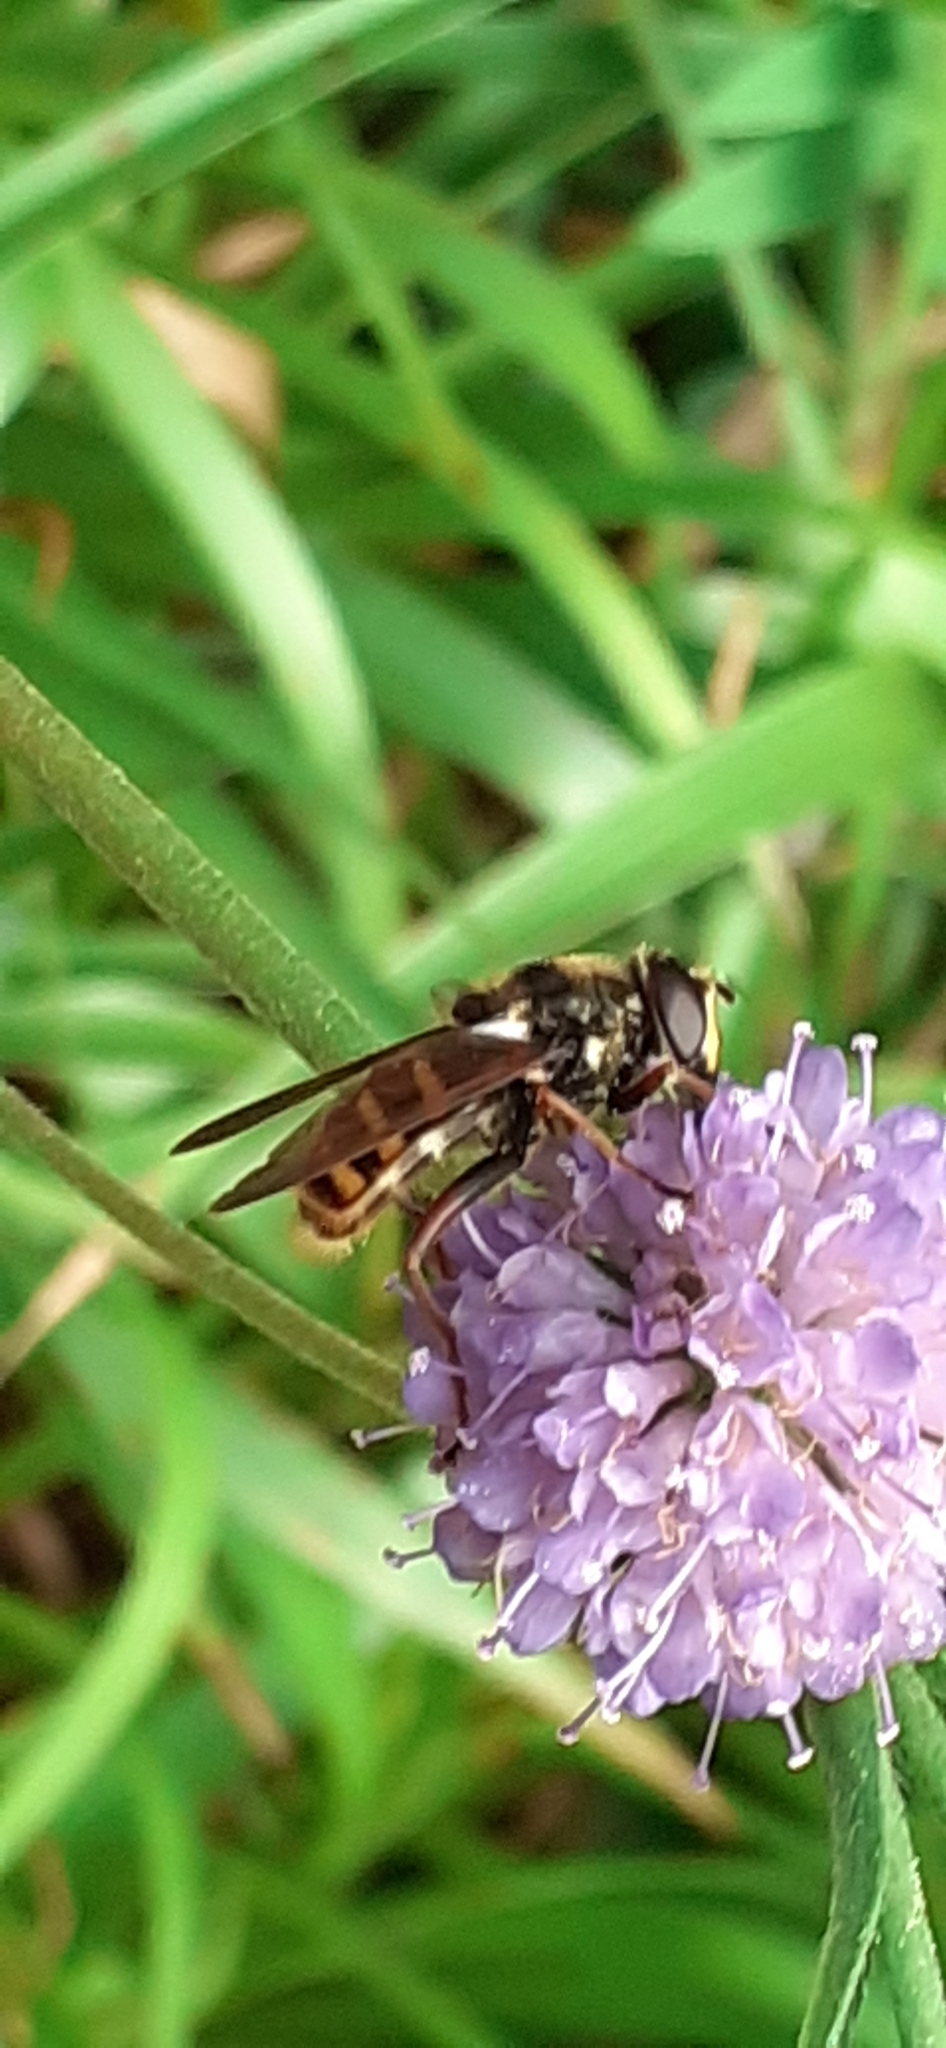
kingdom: Animalia
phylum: Arthropoda
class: Insecta
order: Diptera
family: Syrphidae
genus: Sericomyia
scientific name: Sericomyia silentis
